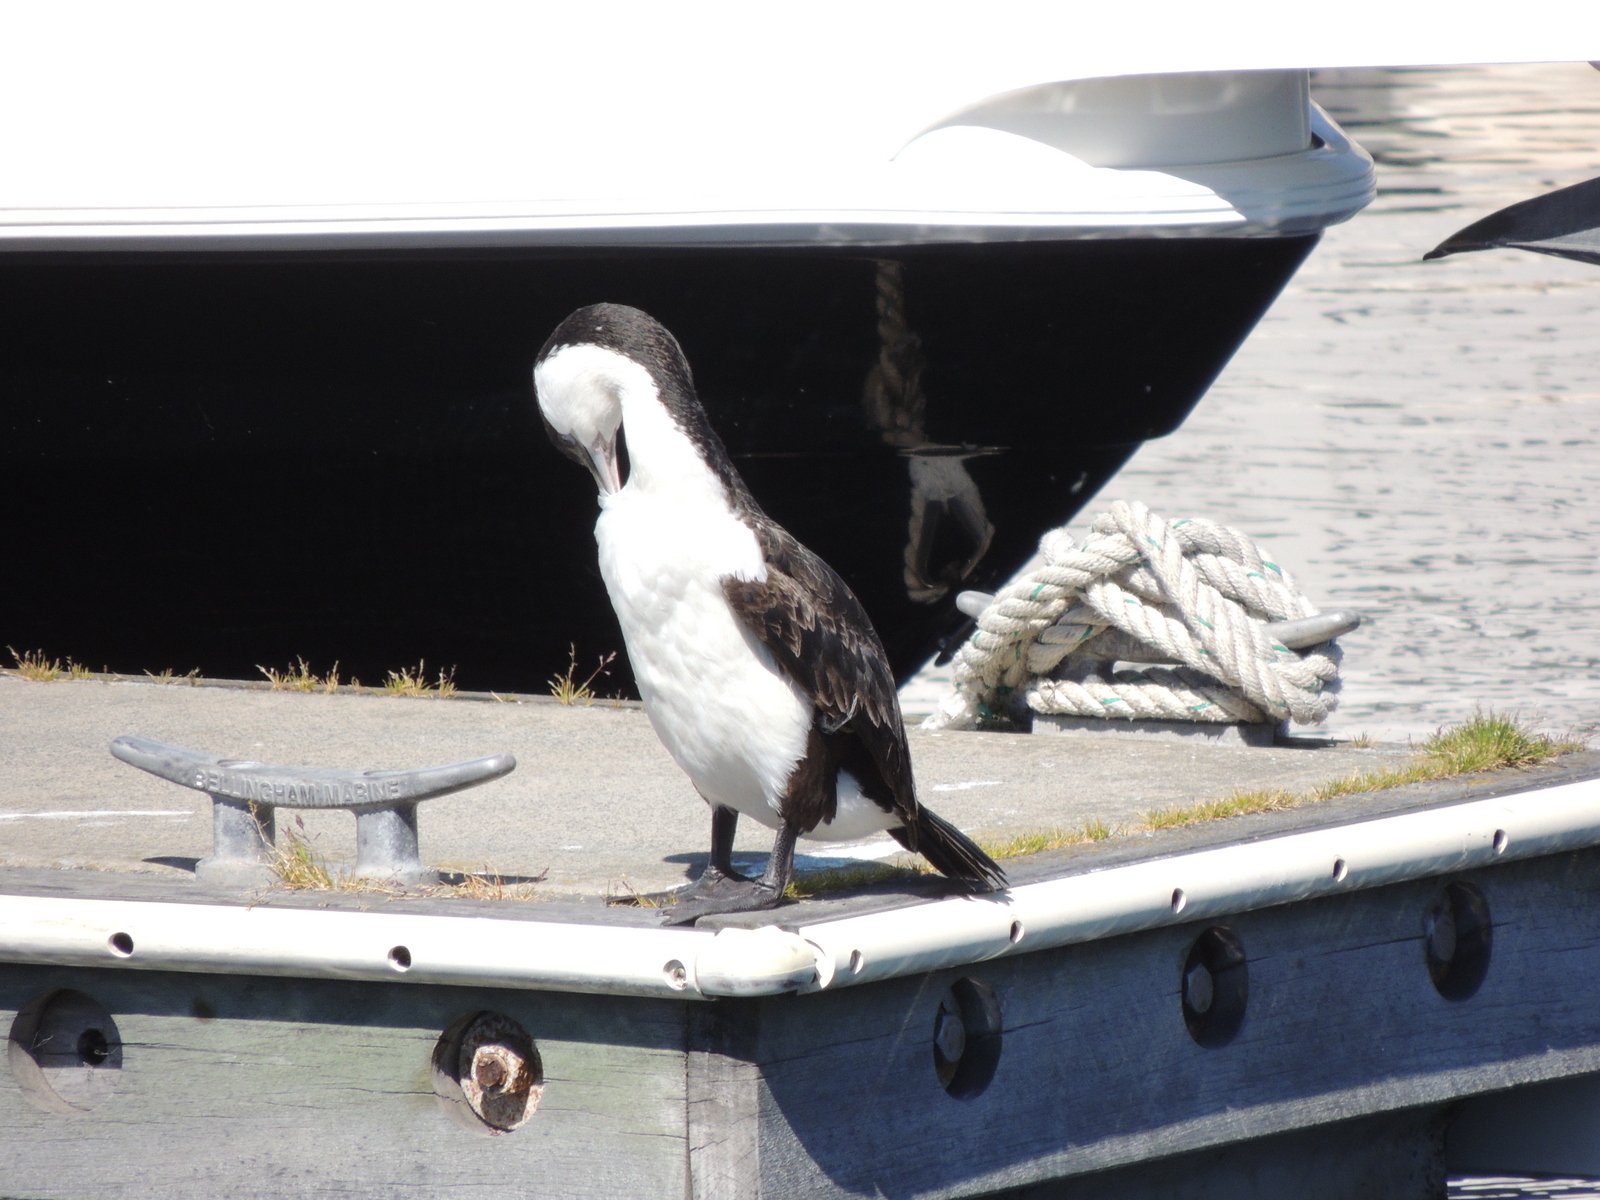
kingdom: Animalia
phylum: Chordata
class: Aves
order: Suliformes
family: Phalacrocoracidae
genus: Phalacrocorax
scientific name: Phalacrocorax fuscescens
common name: Black-faced cormorant
